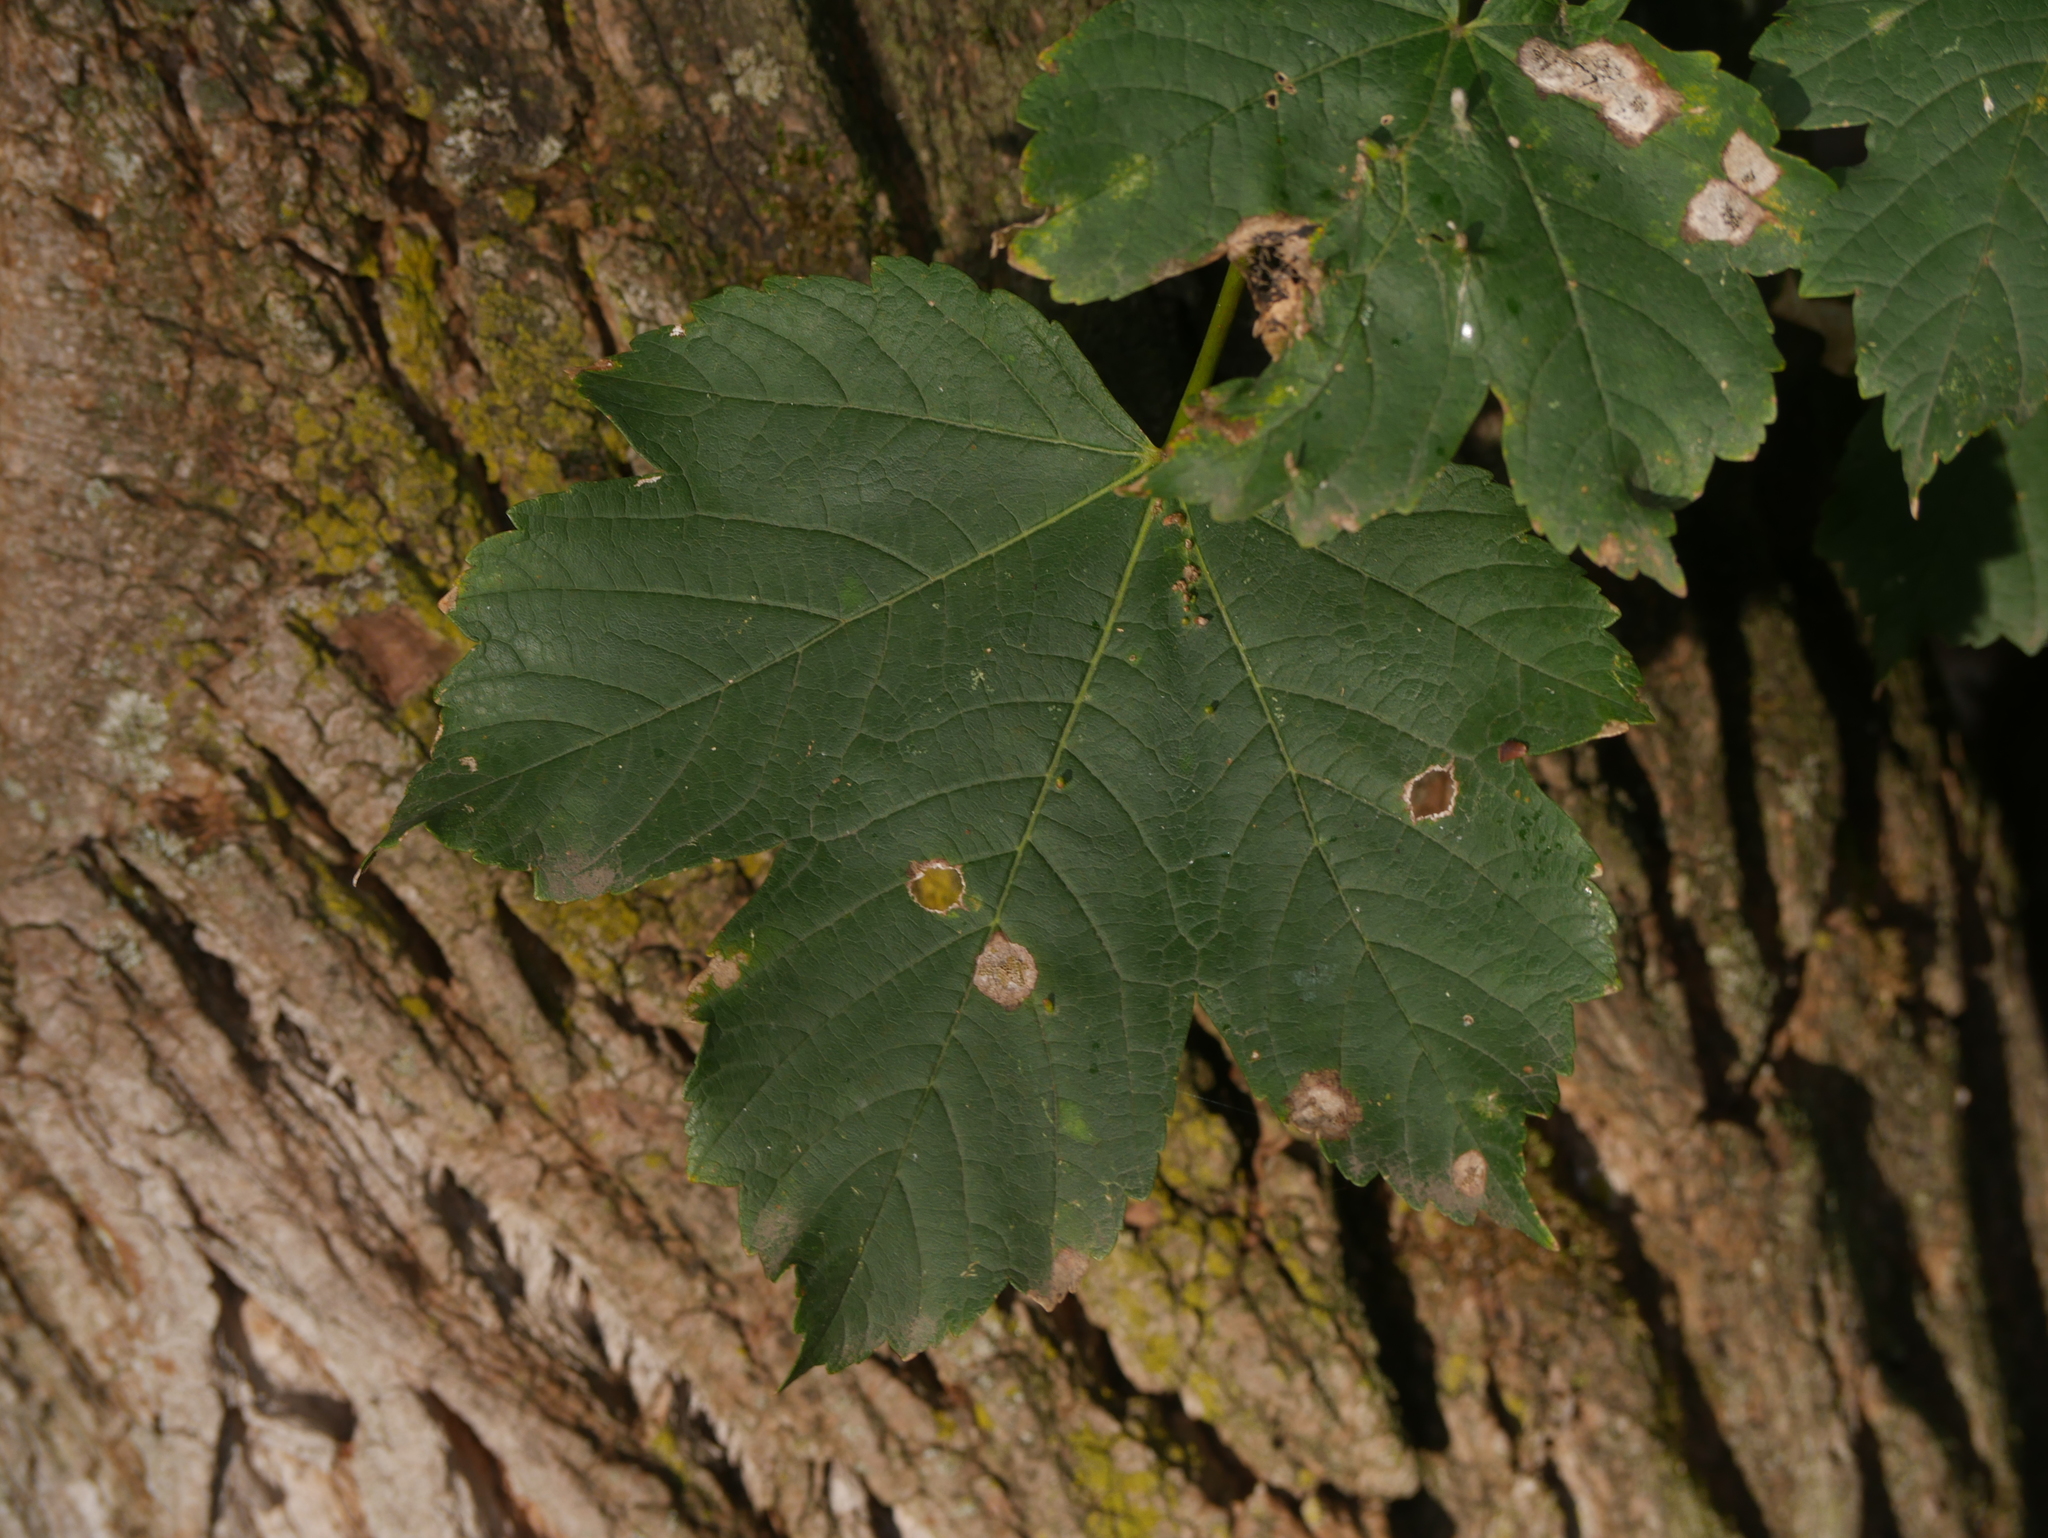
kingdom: Plantae
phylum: Tracheophyta
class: Magnoliopsida
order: Sapindales
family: Sapindaceae
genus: Acer
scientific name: Acer pseudoplatanus
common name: Sycamore
